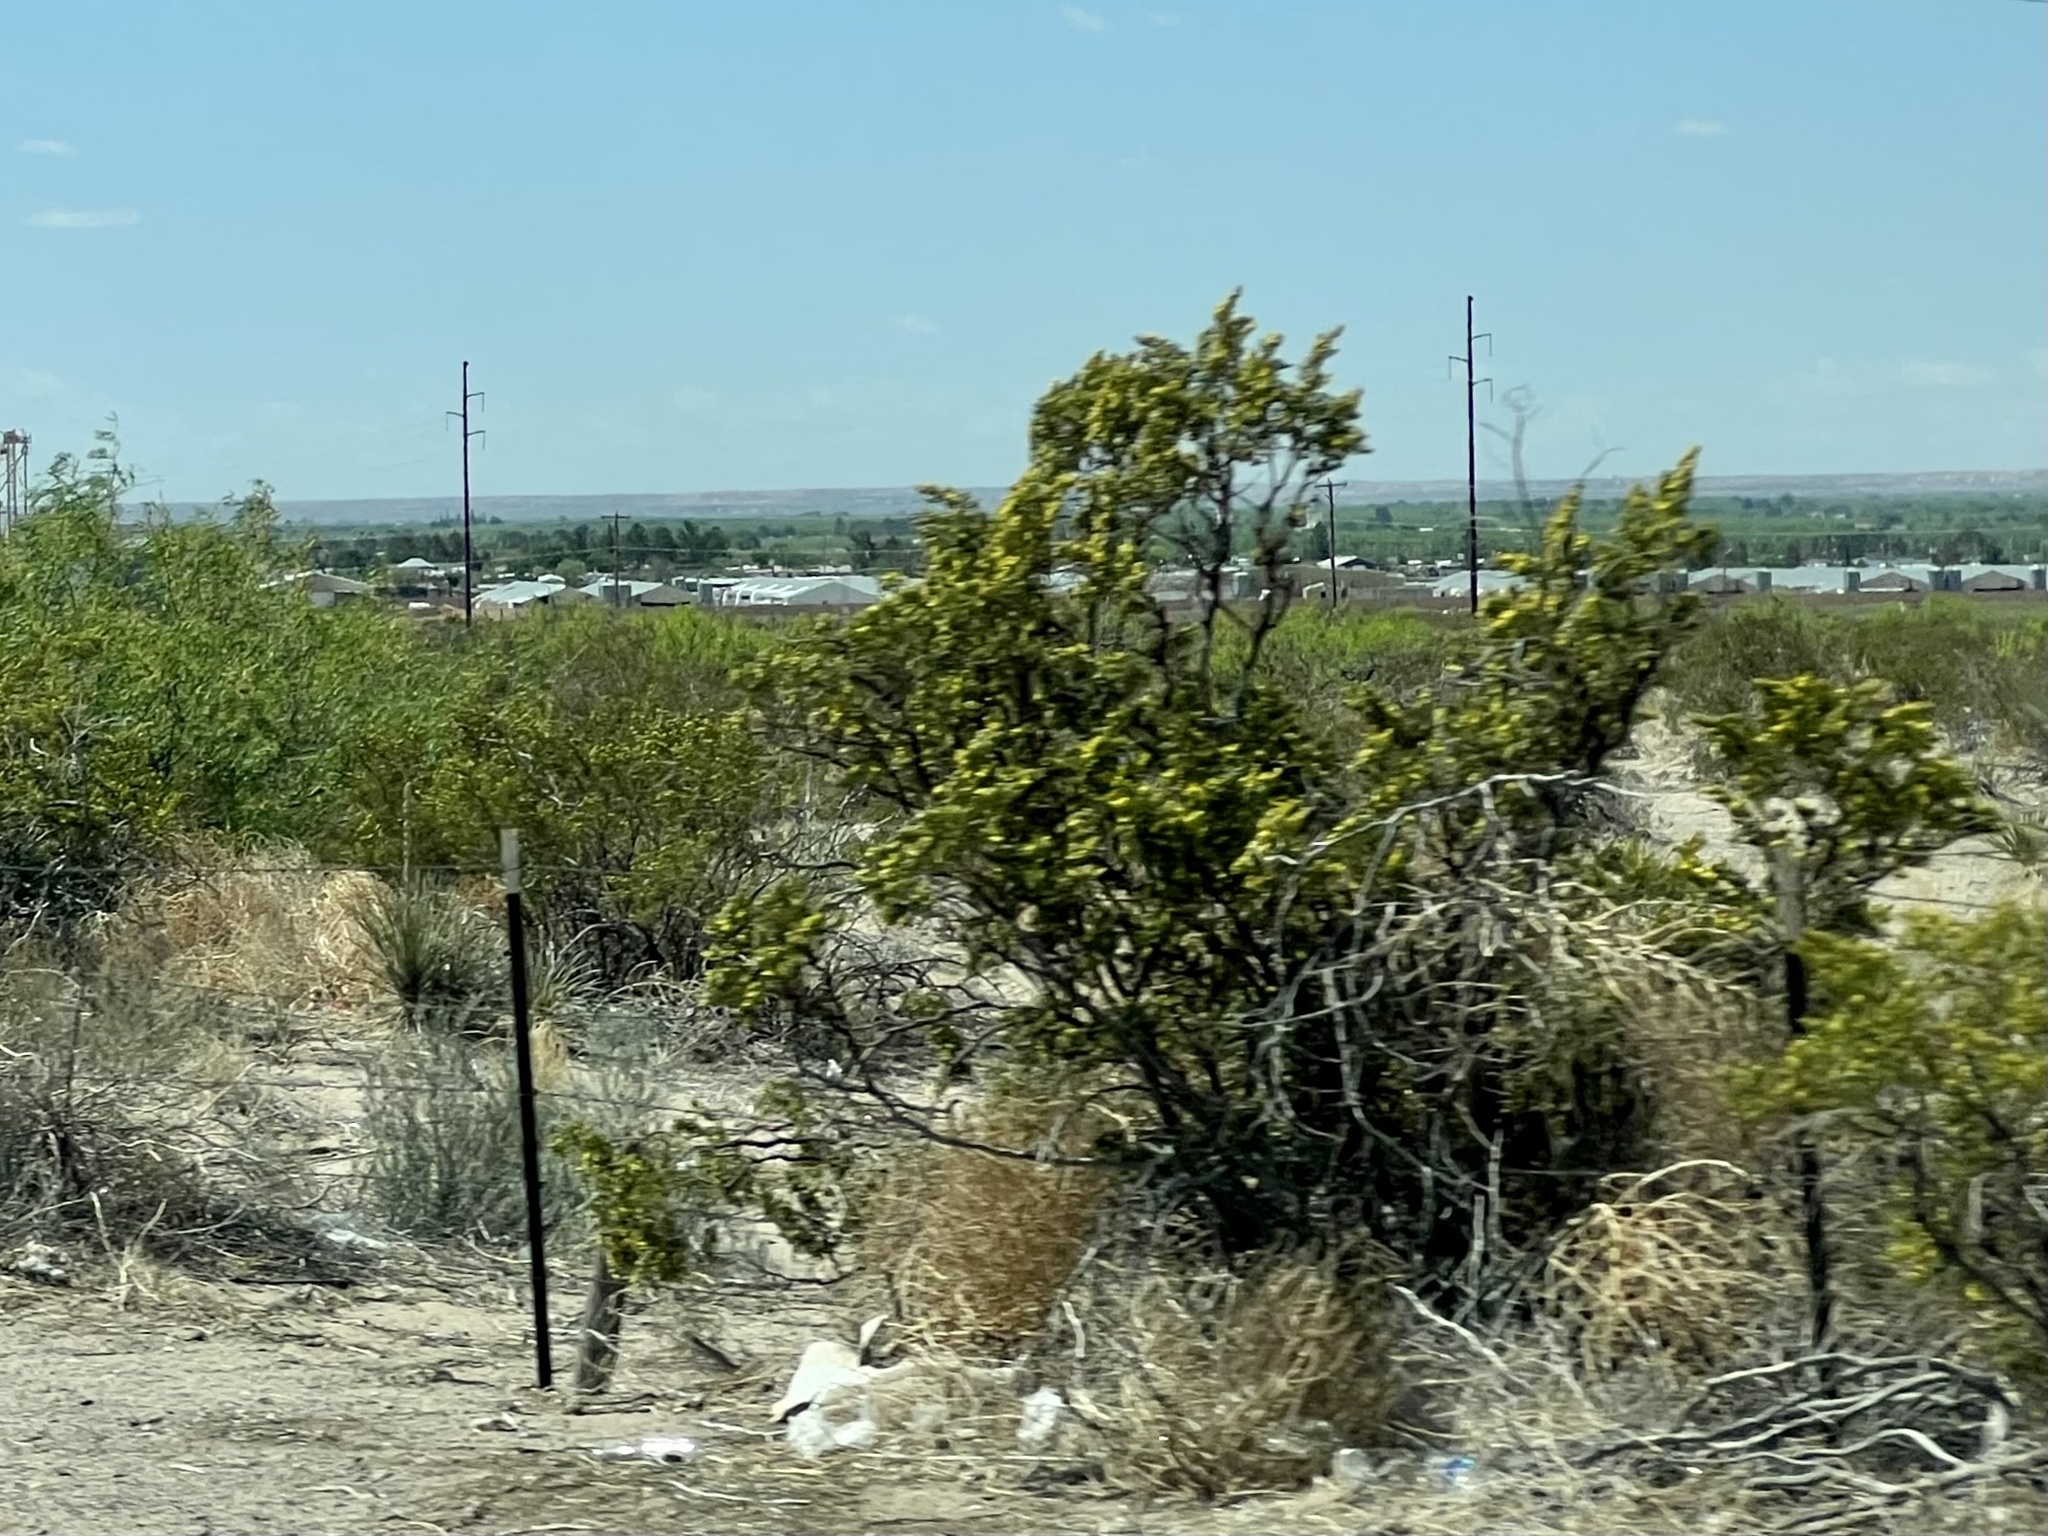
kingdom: Plantae
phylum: Tracheophyta
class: Magnoliopsida
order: Zygophyllales
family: Zygophyllaceae
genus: Larrea
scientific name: Larrea tridentata
